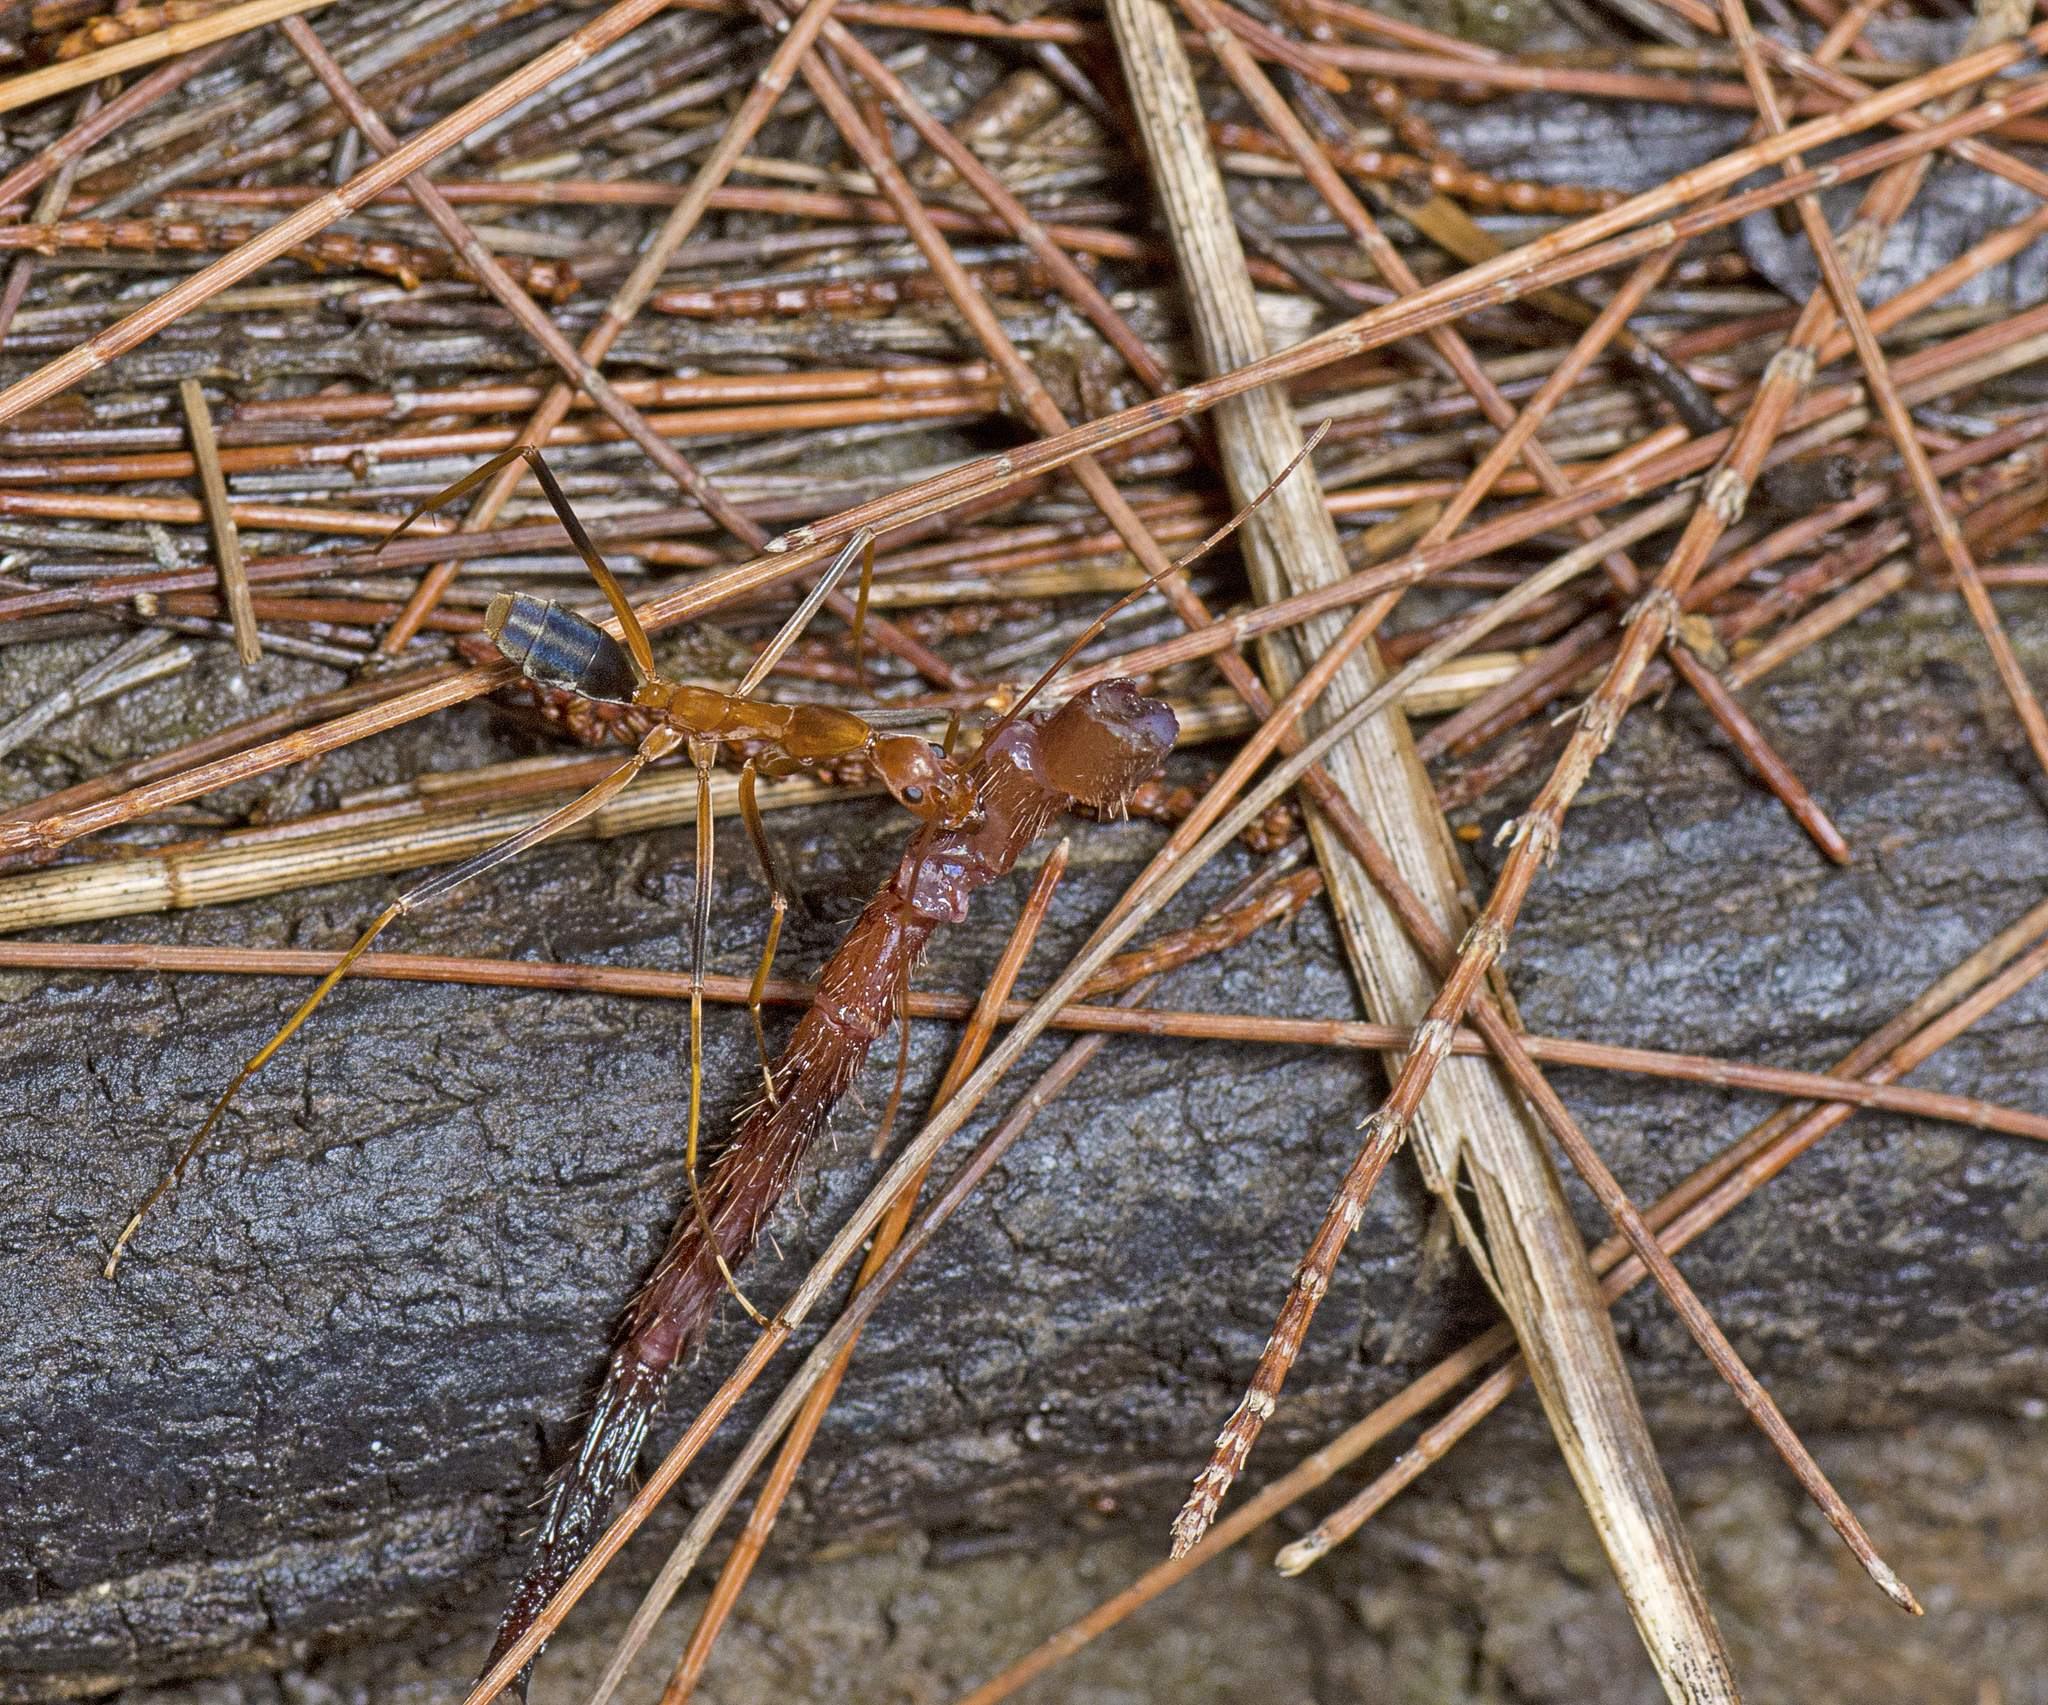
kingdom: Animalia
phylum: Arthropoda
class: Insecta
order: Hymenoptera
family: Formicidae
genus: Leptomyrmex
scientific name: Leptomyrmex rufipes
